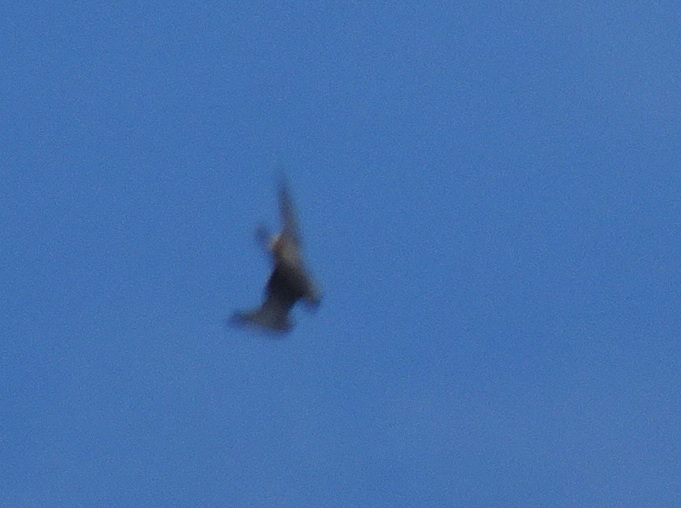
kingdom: Animalia
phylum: Chordata
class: Aves
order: Falconiformes
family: Falconidae
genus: Falco
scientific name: Falco peregrinus
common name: Peregrine falcon
